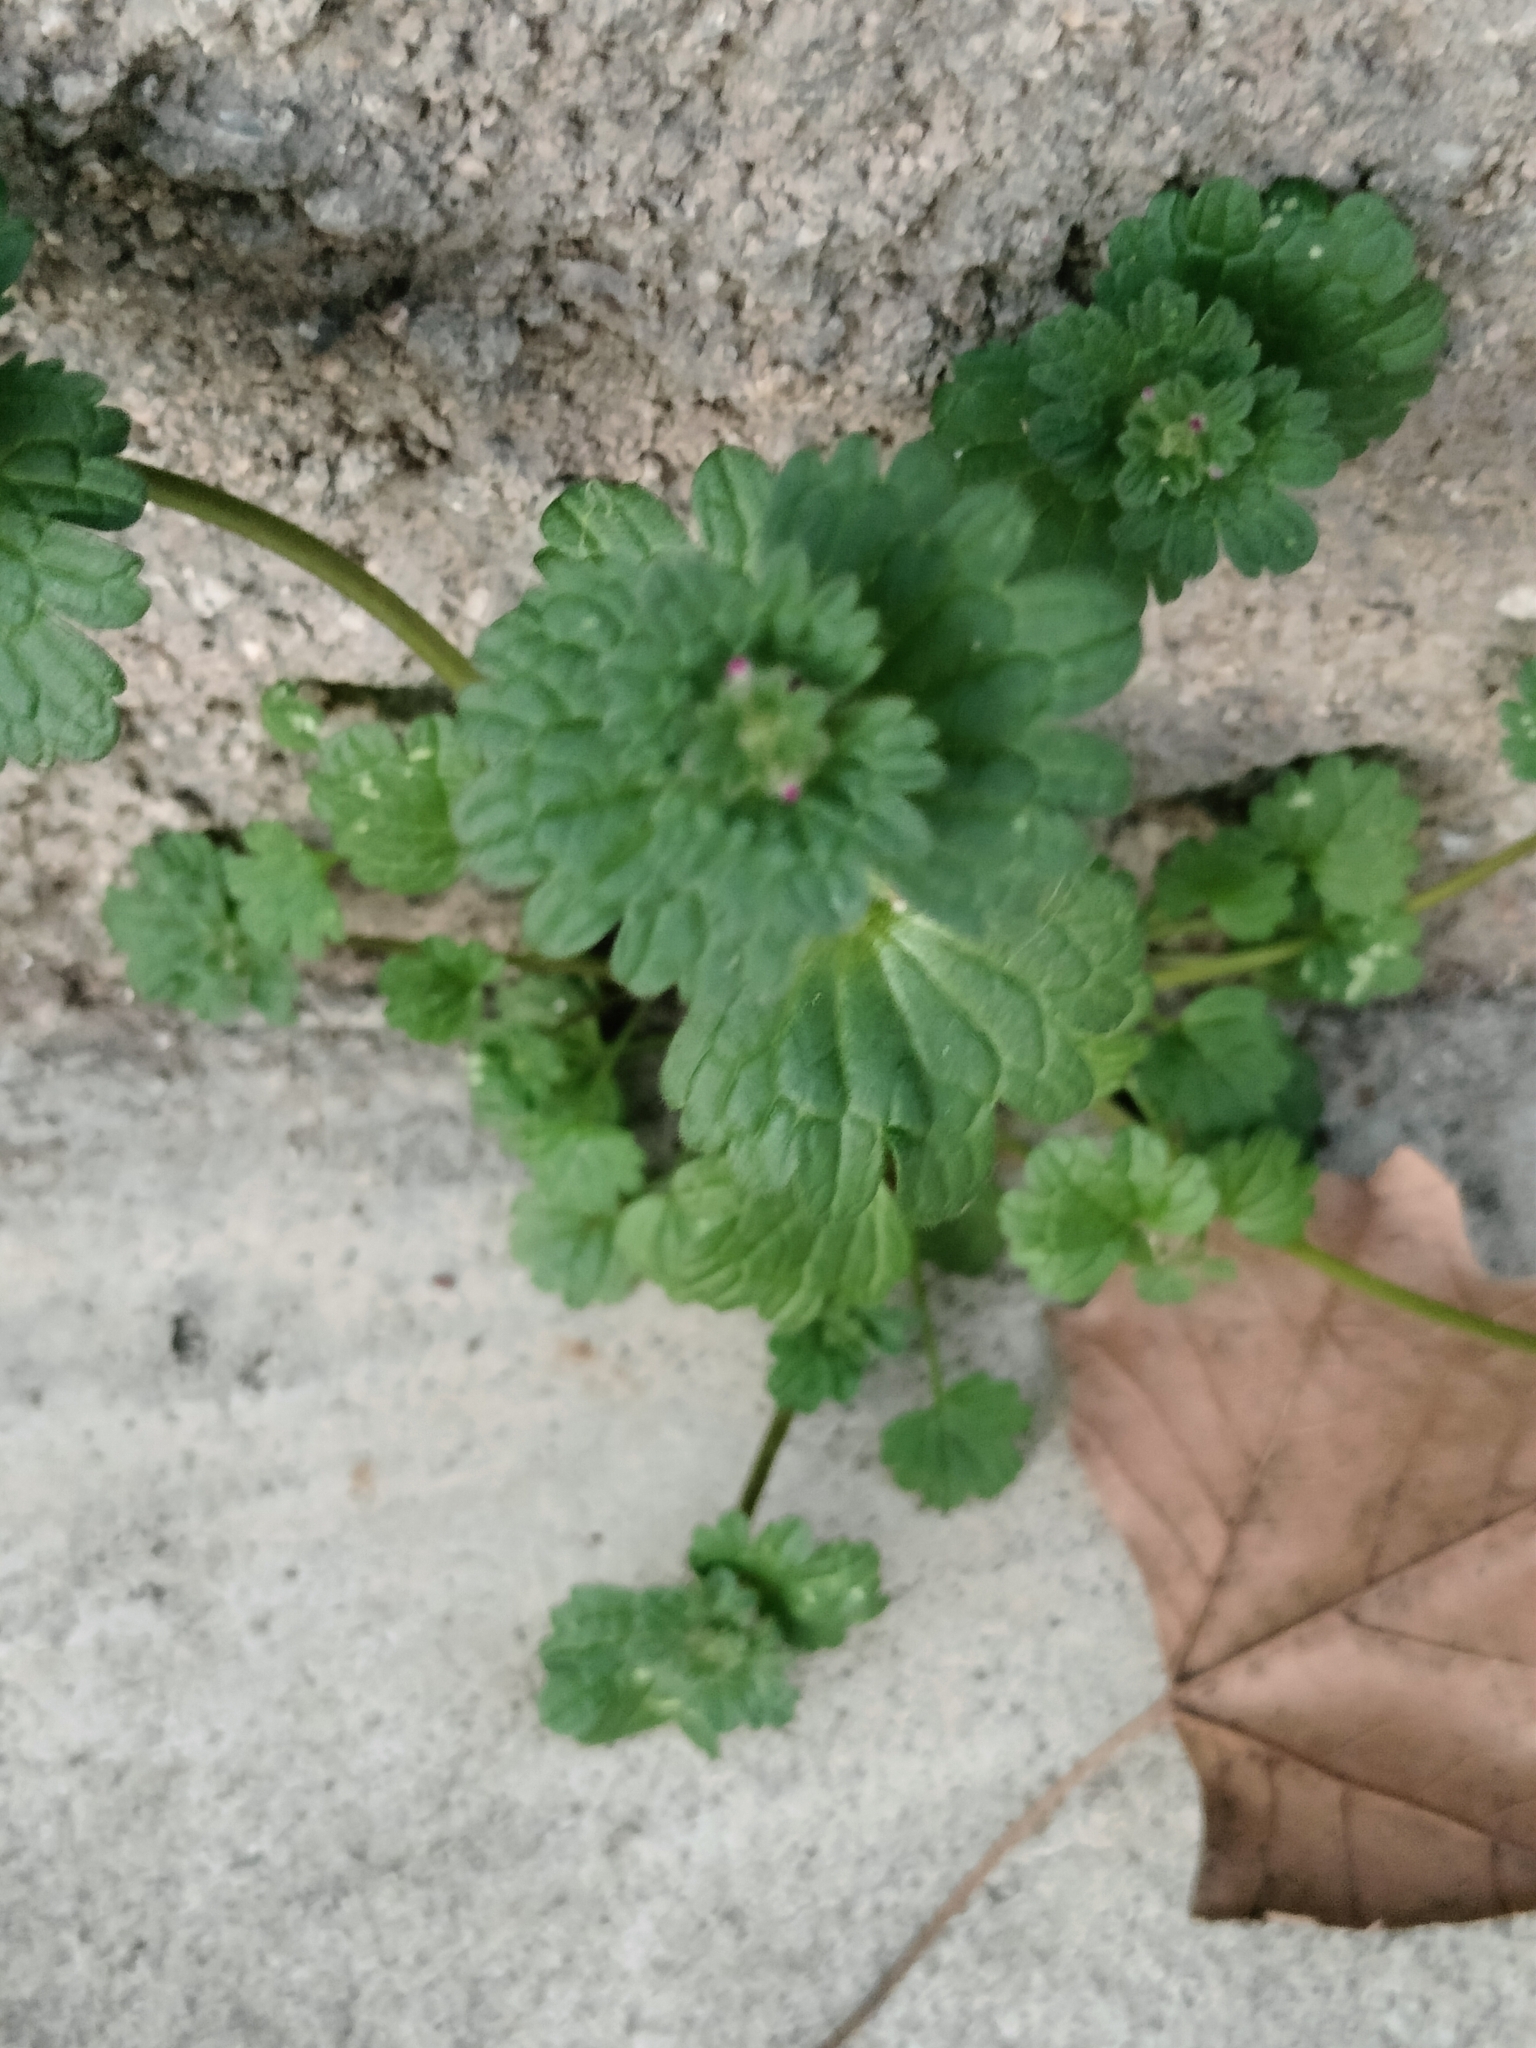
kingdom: Plantae
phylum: Tracheophyta
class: Magnoliopsida
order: Lamiales
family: Lamiaceae
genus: Lamium
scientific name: Lamium amplexicaule
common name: Henbit dead-nettle
